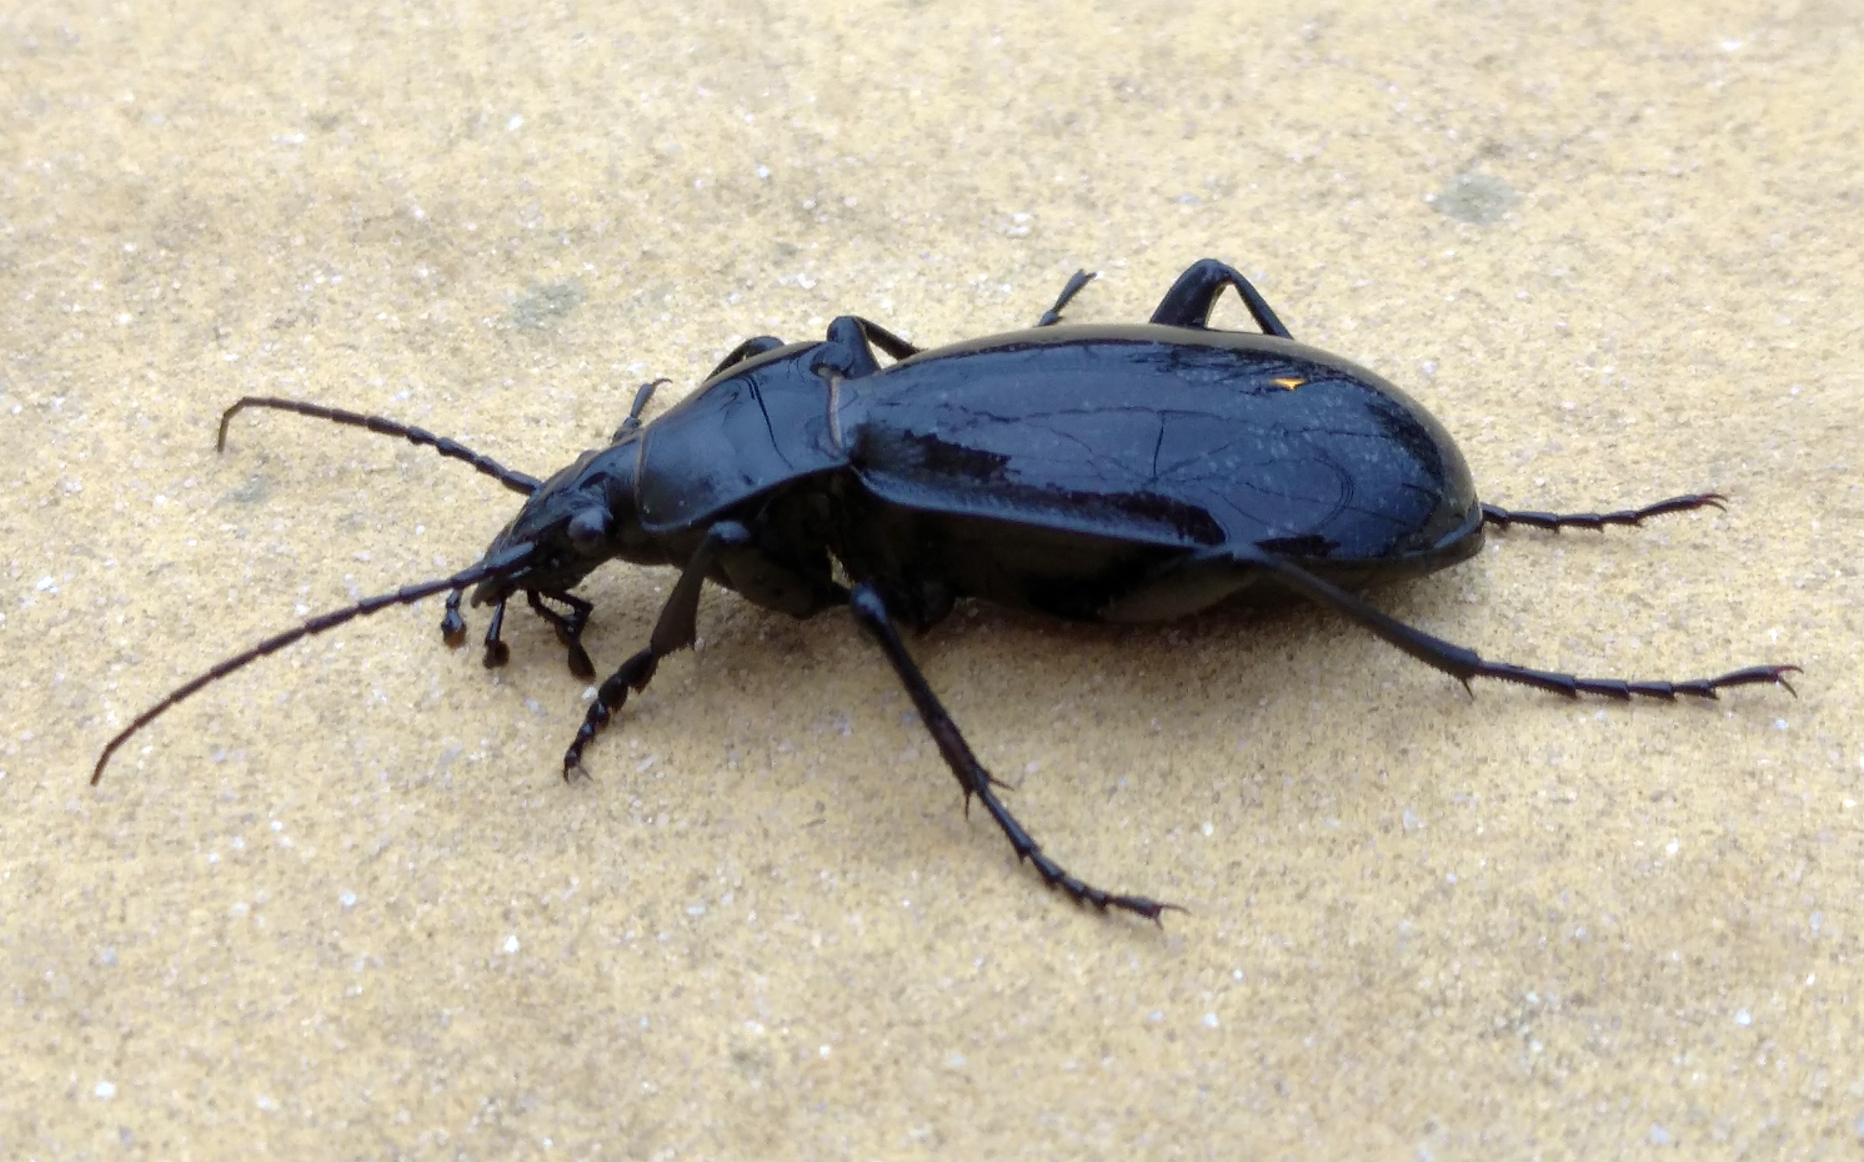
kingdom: Animalia
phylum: Arthropoda
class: Insecta
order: Coleoptera
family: Carabidae
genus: Carabus
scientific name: Carabus coriaceus
